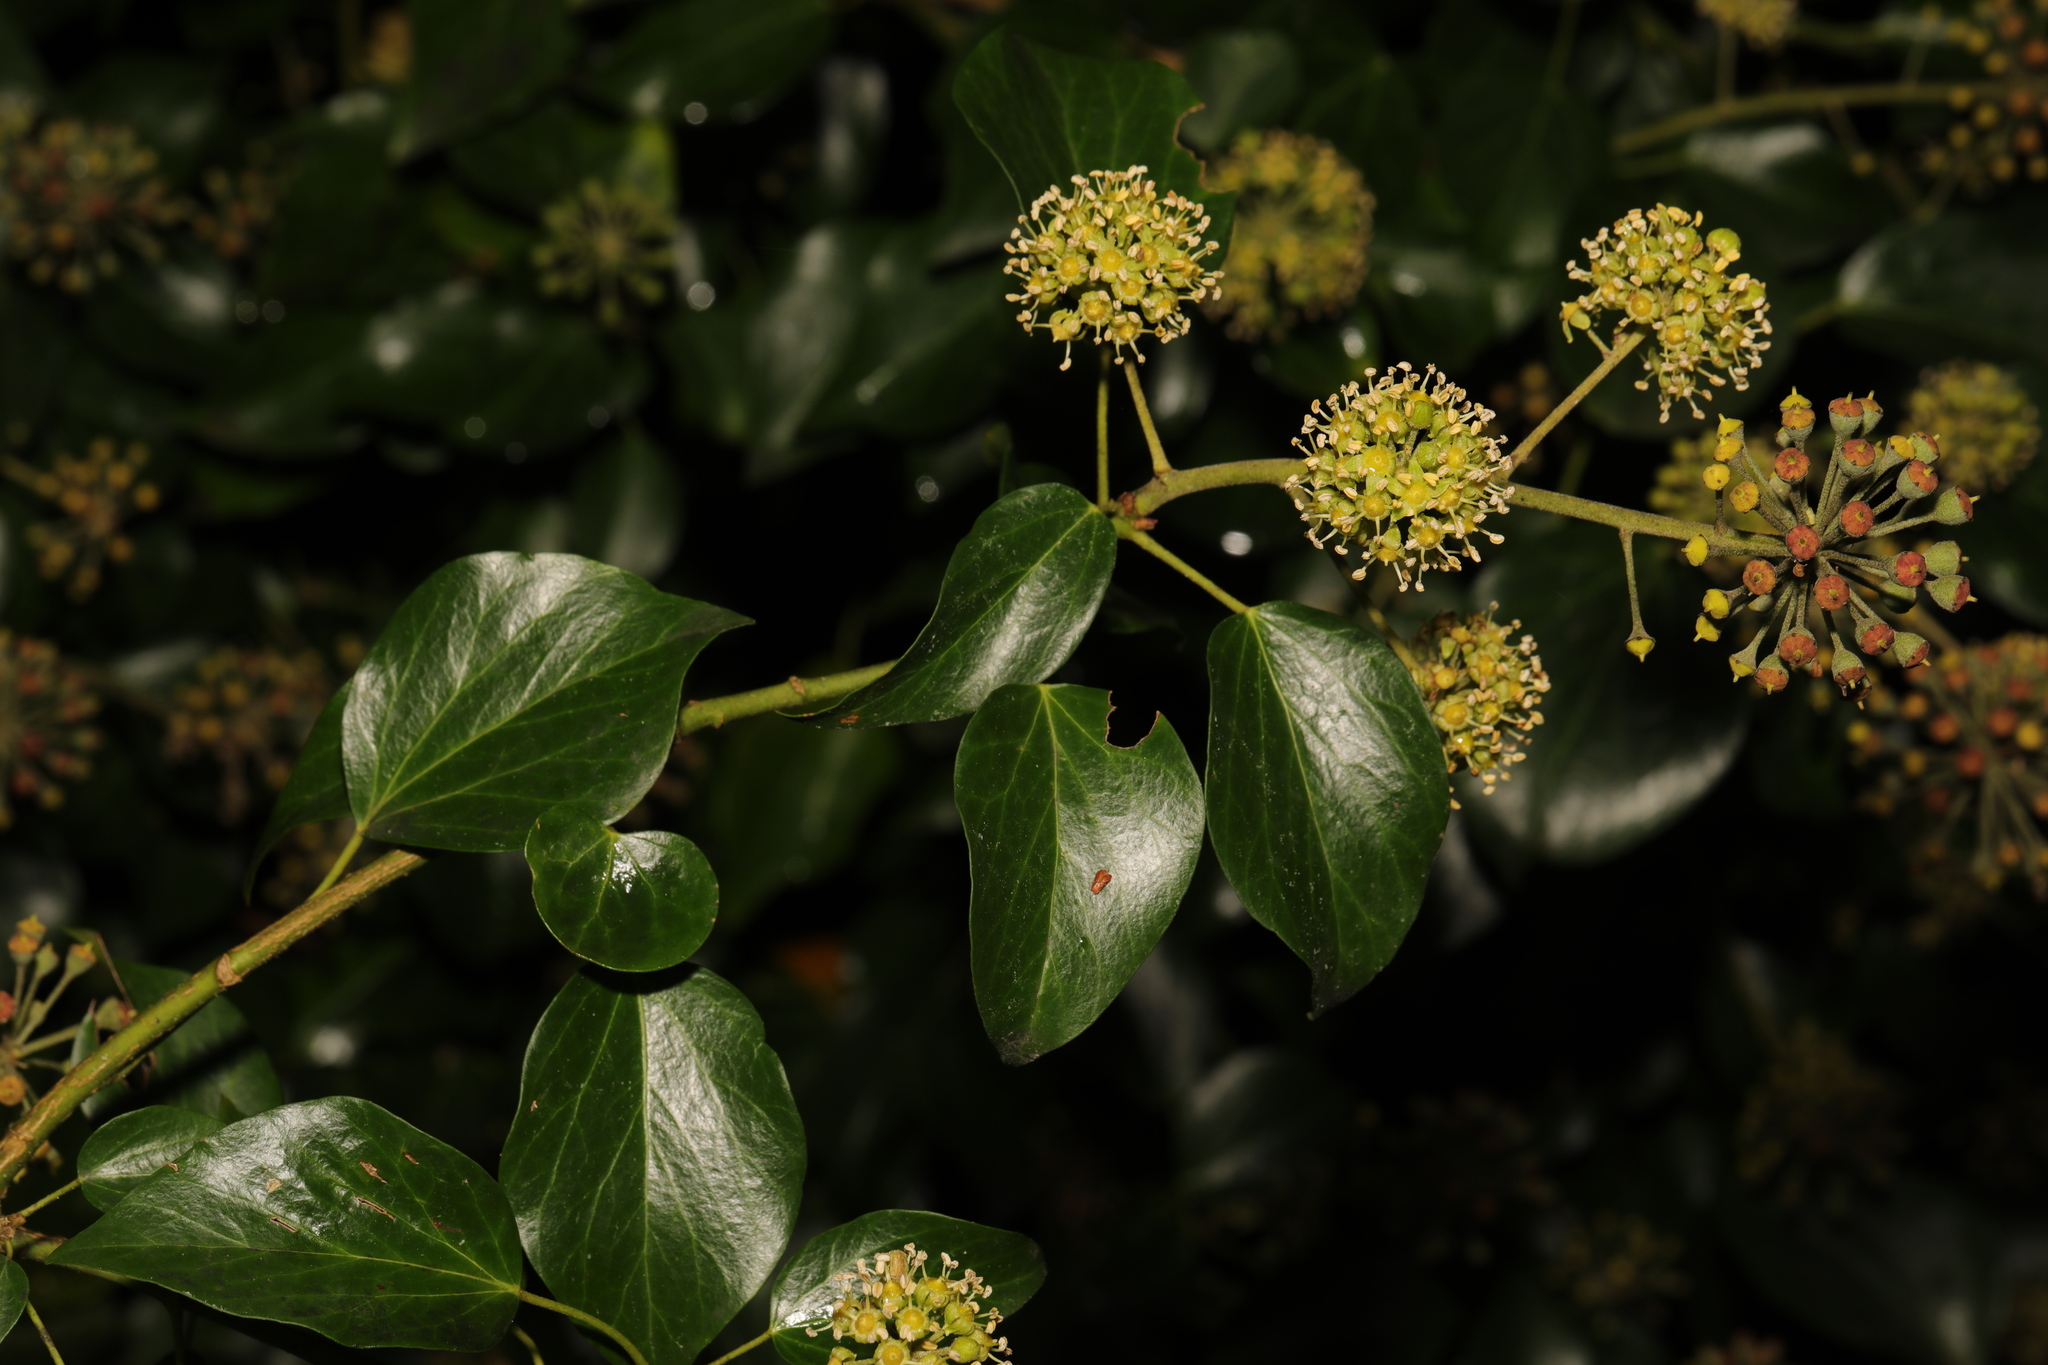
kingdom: Plantae
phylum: Tracheophyta
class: Magnoliopsida
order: Apiales
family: Araliaceae
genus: Hedera
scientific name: Hedera helix
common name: Ivy
